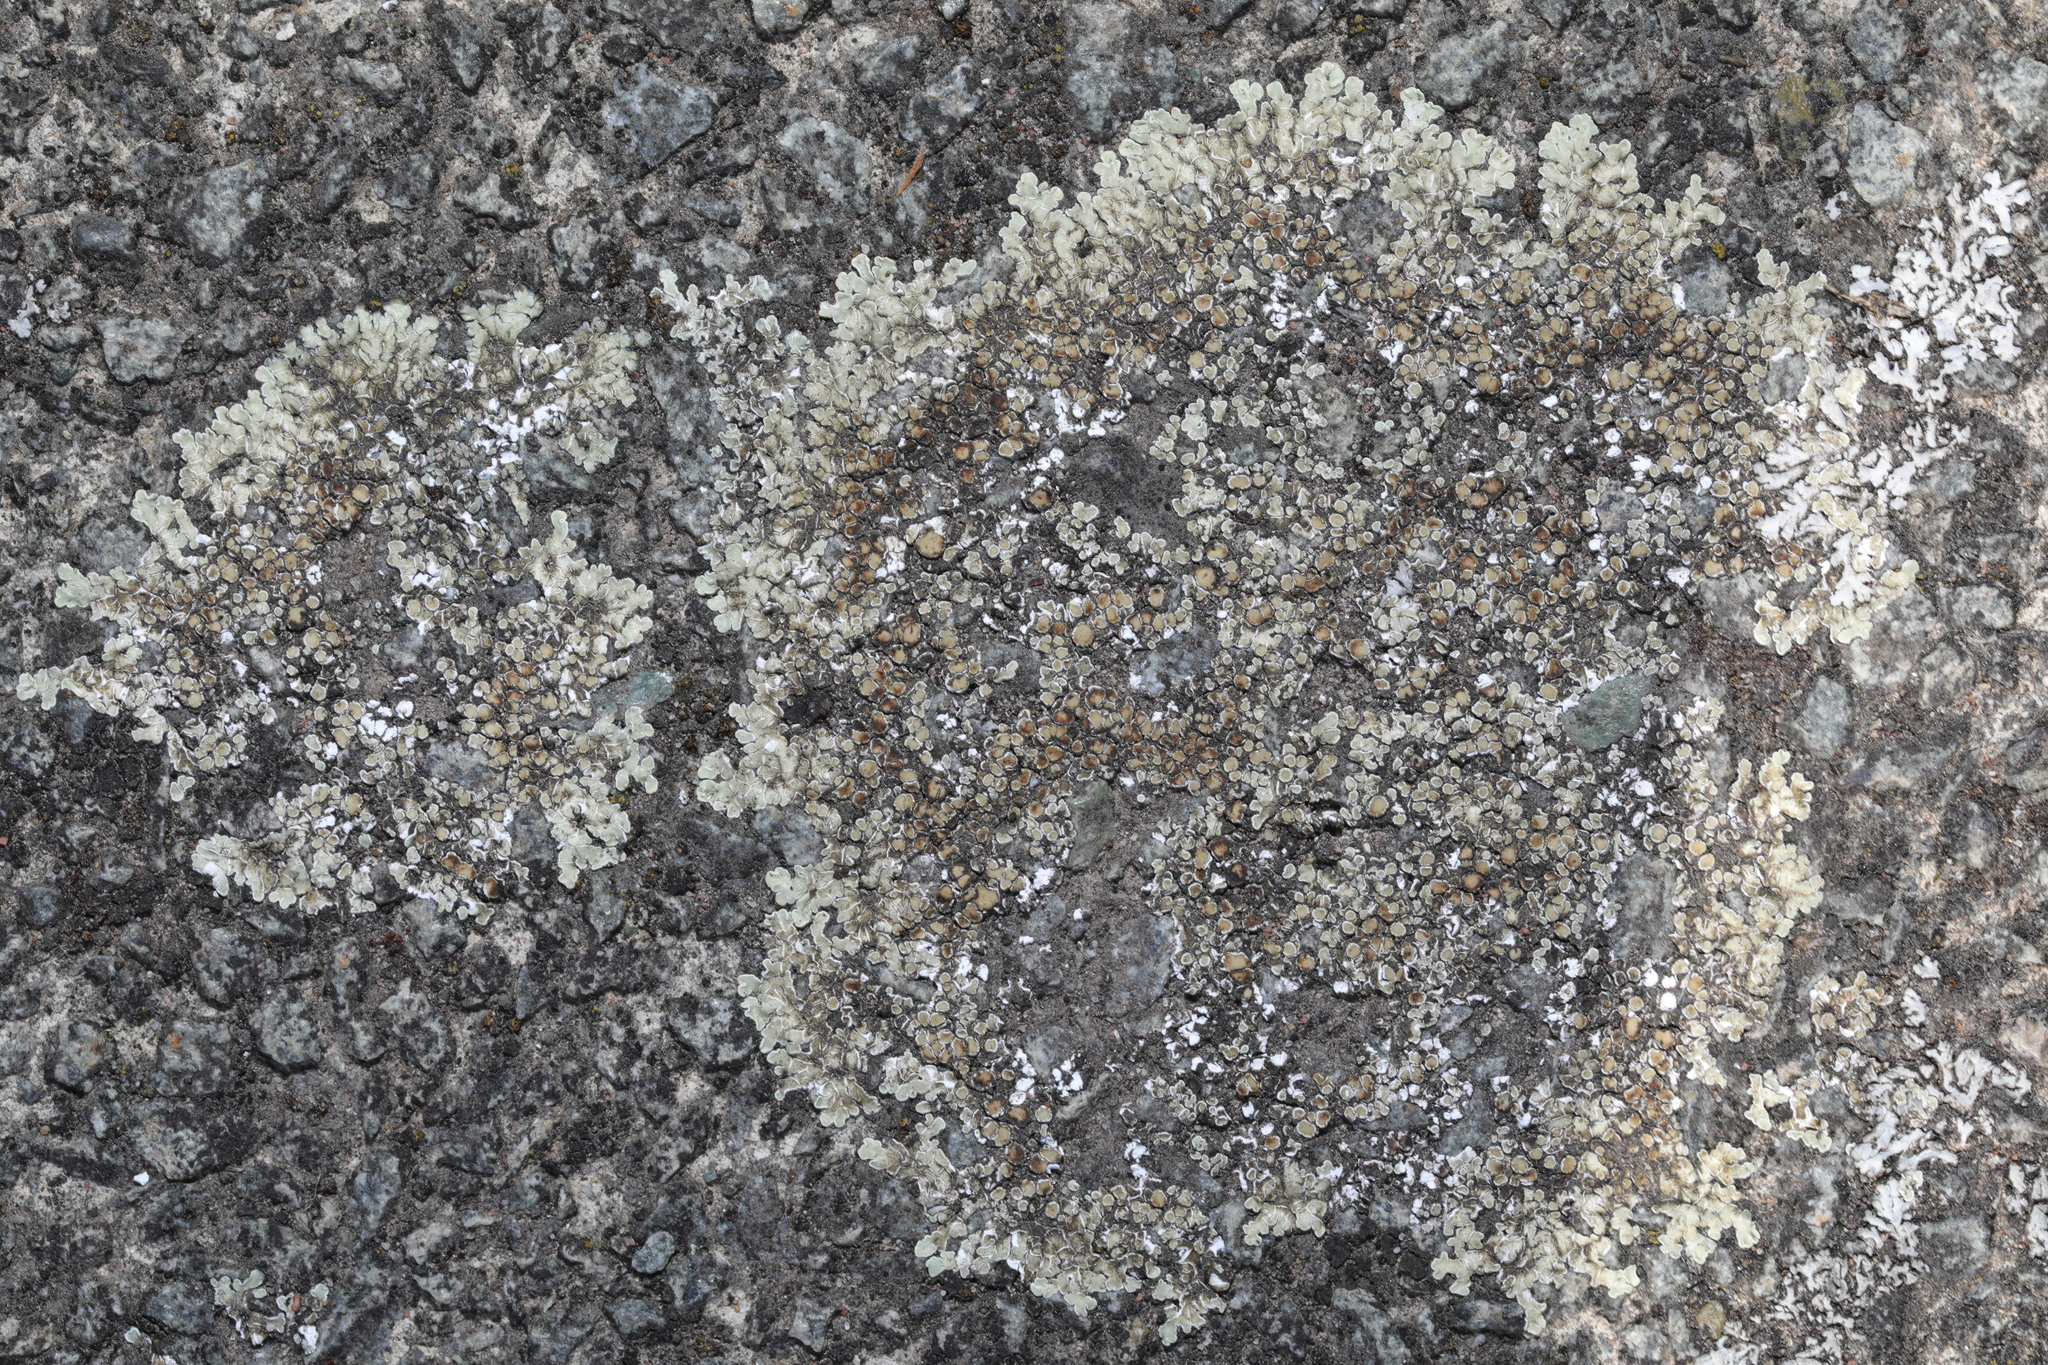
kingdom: Fungi
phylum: Ascomycota
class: Lecanoromycetes
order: Lecanorales
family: Lecanoraceae
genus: Protoparmeliopsis
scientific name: Protoparmeliopsis muralis
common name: Stonewall rim lichen
